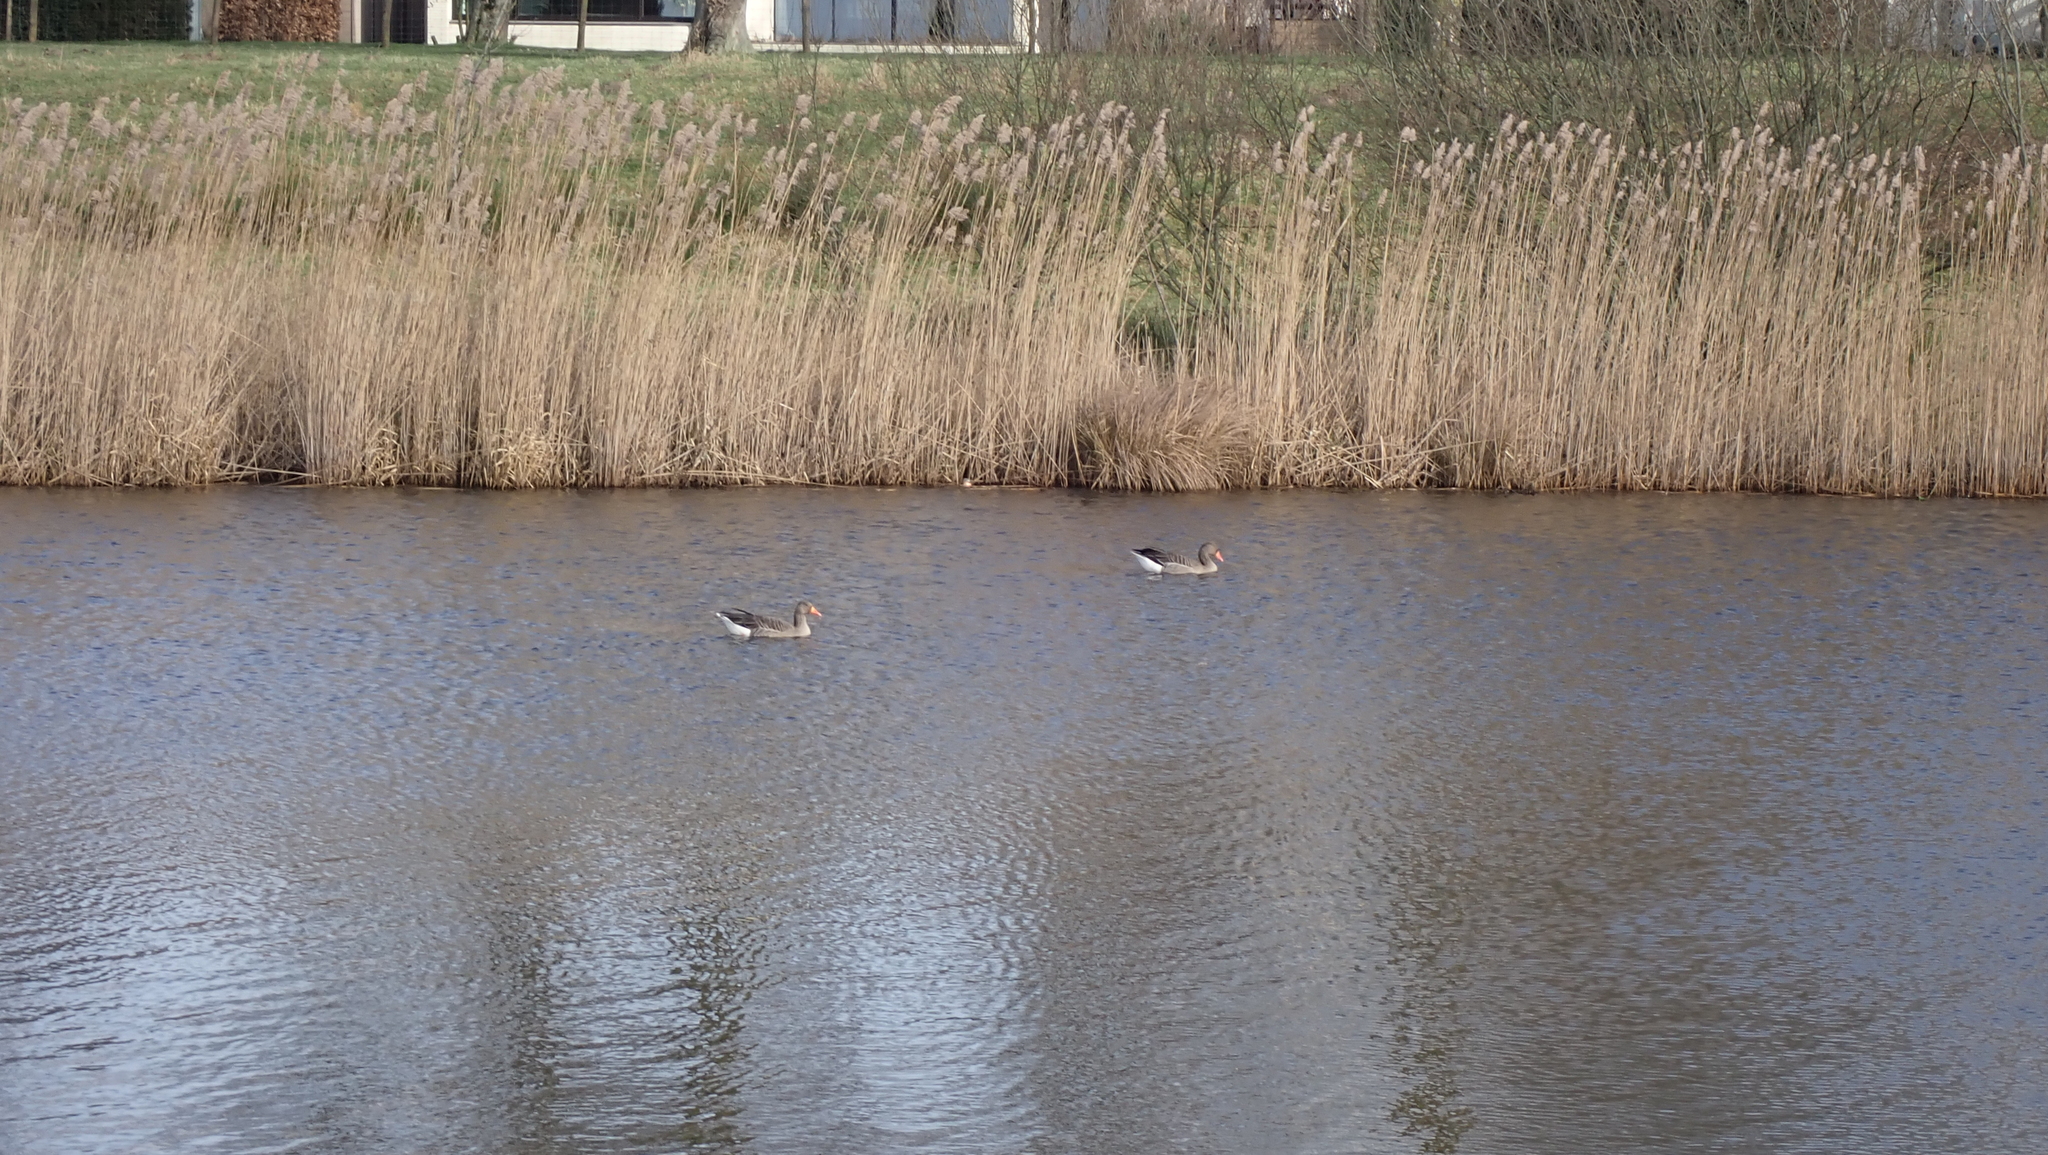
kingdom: Animalia
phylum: Chordata
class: Aves
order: Anseriformes
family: Anatidae
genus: Anser
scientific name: Anser anser
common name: Greylag goose
